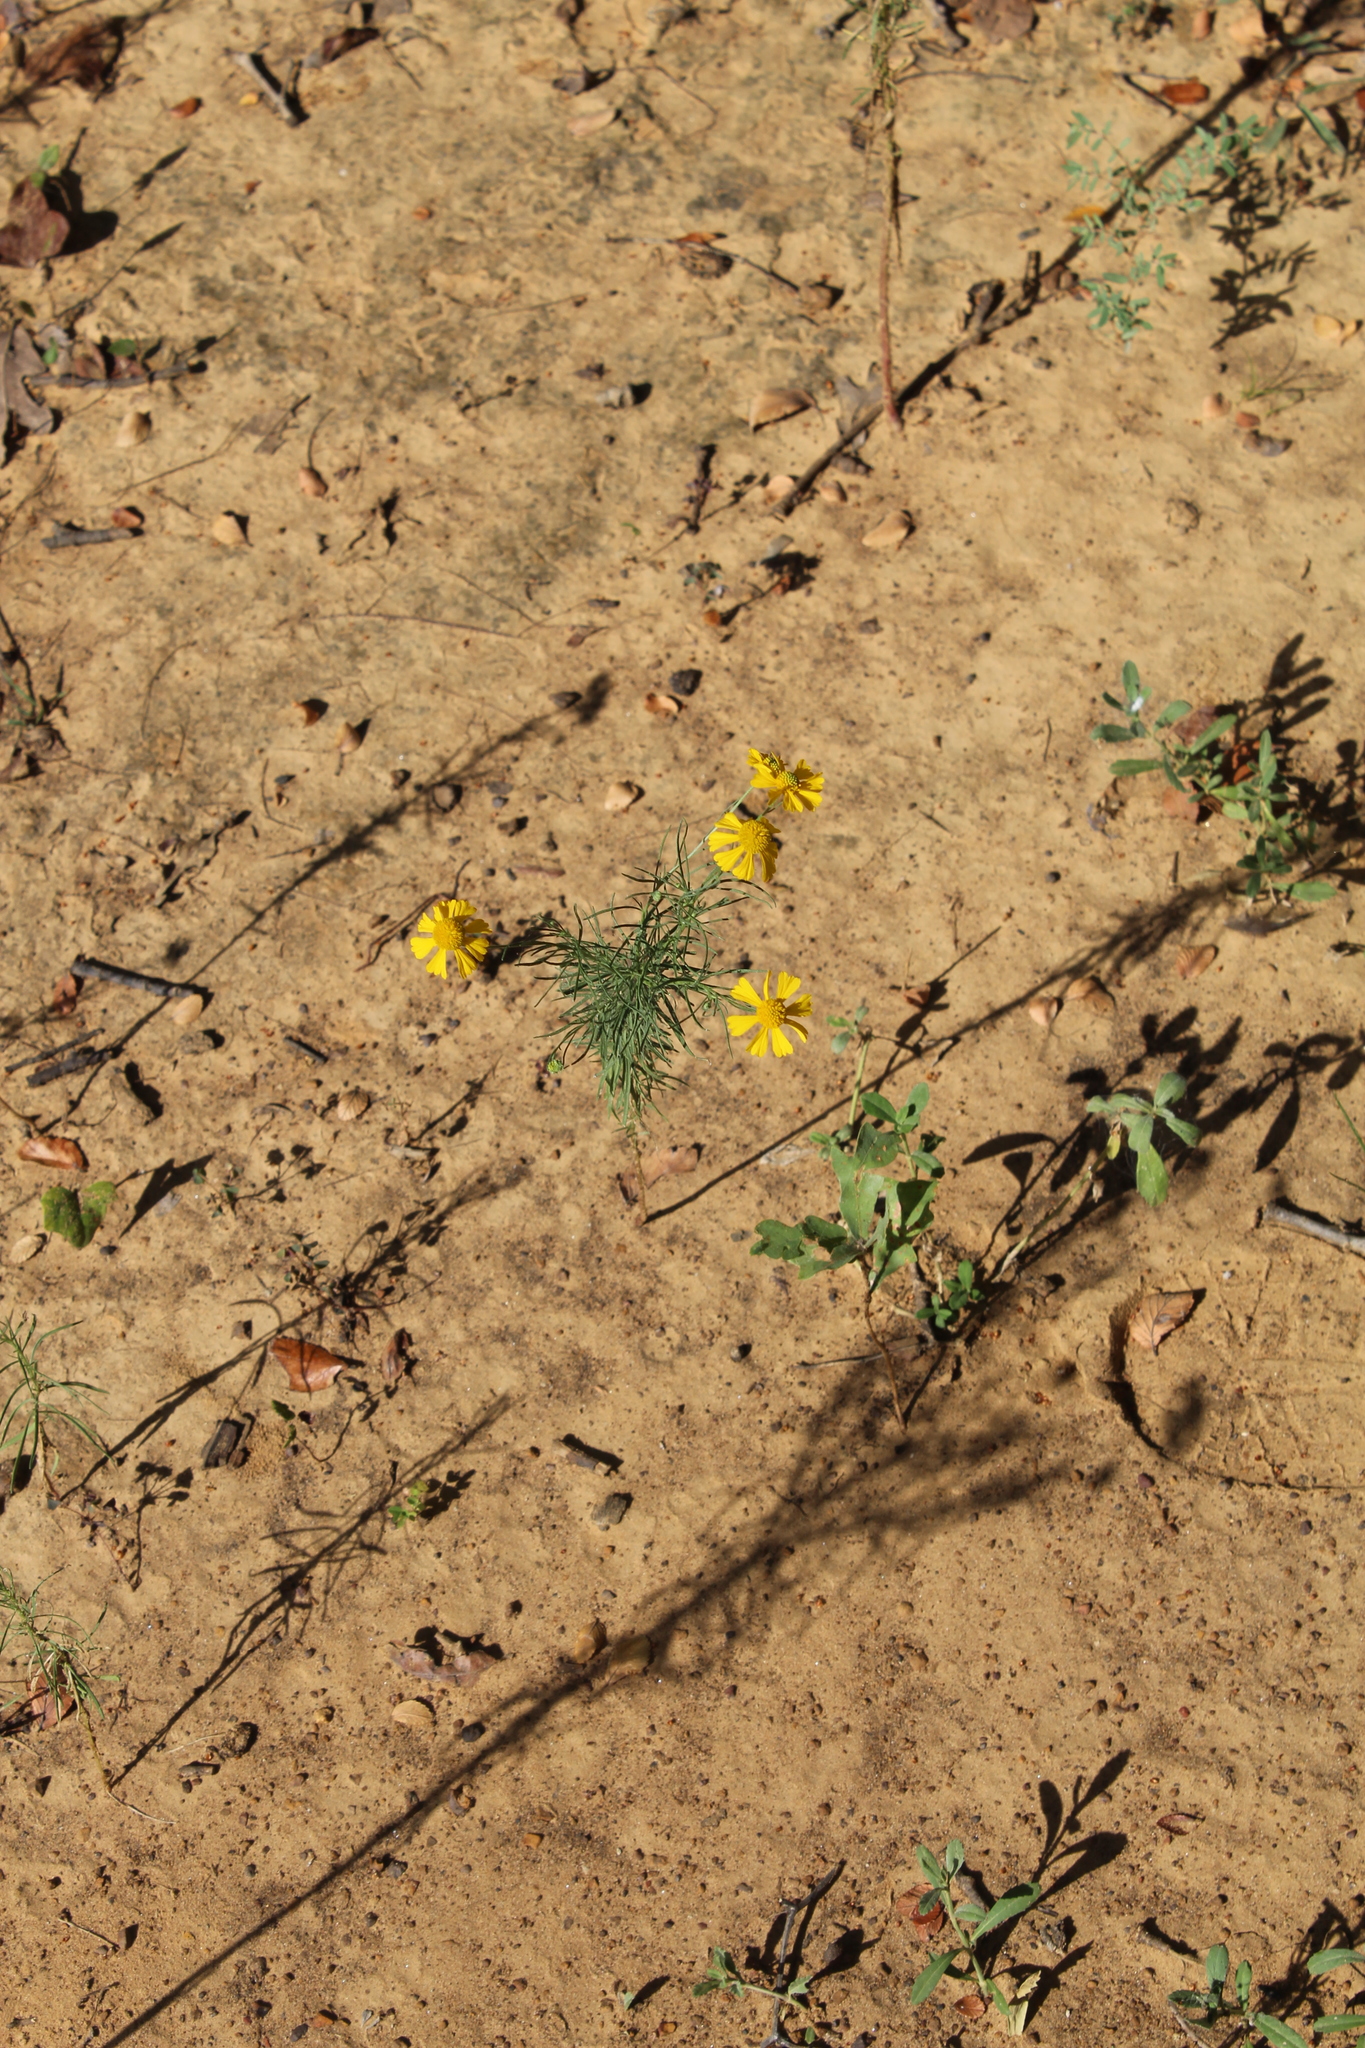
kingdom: Plantae
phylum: Tracheophyta
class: Magnoliopsida
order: Asterales
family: Asteraceae
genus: Helenium
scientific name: Helenium amarum
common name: Bitter sneezeweed
